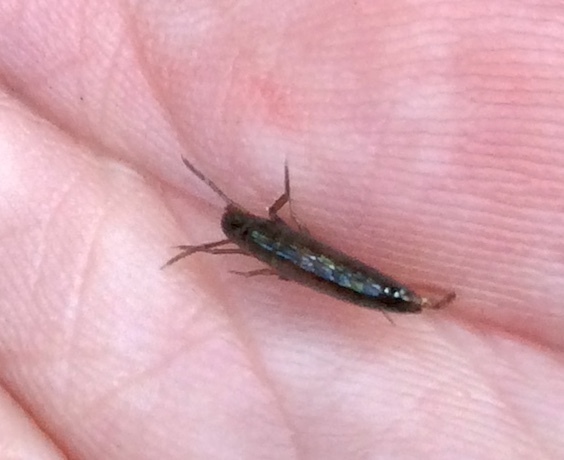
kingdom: Animalia
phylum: Arthropoda
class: Malacostraca
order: Amphipoda
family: Arcitalitridae
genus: Arcitalitrus
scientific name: Arcitalitrus sylvaticus
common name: Gammarid amphipod
